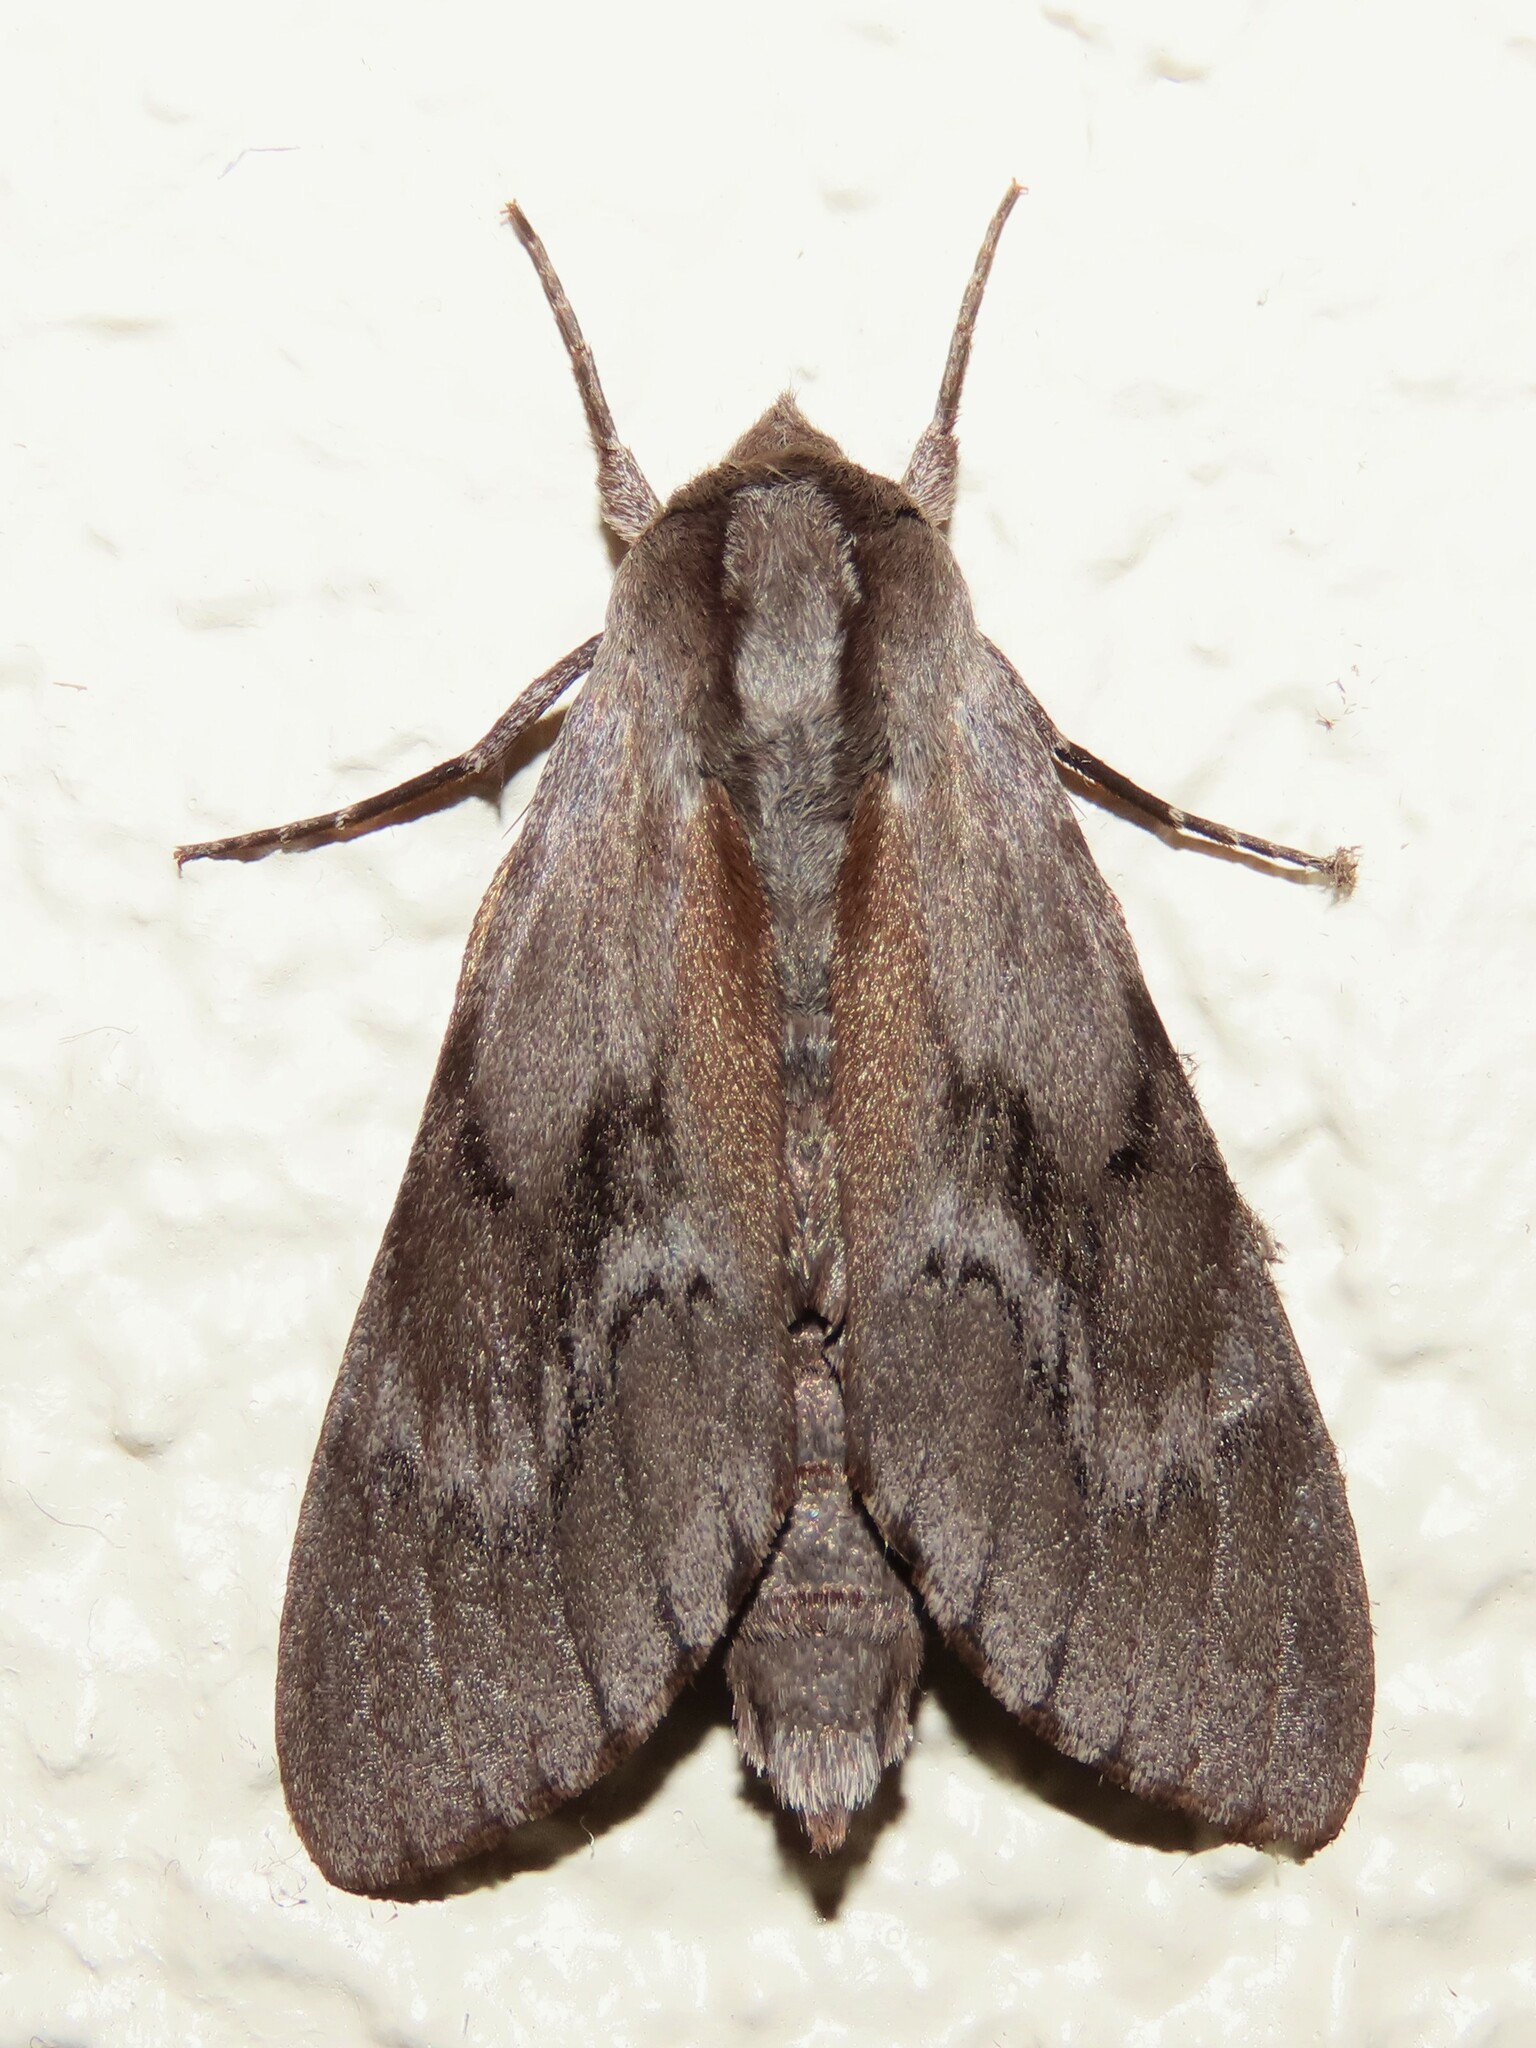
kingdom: Animalia
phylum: Arthropoda
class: Insecta
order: Lepidoptera
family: Sphingidae
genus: Lapara
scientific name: Lapara coniferarum
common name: Southern pine sphinx
